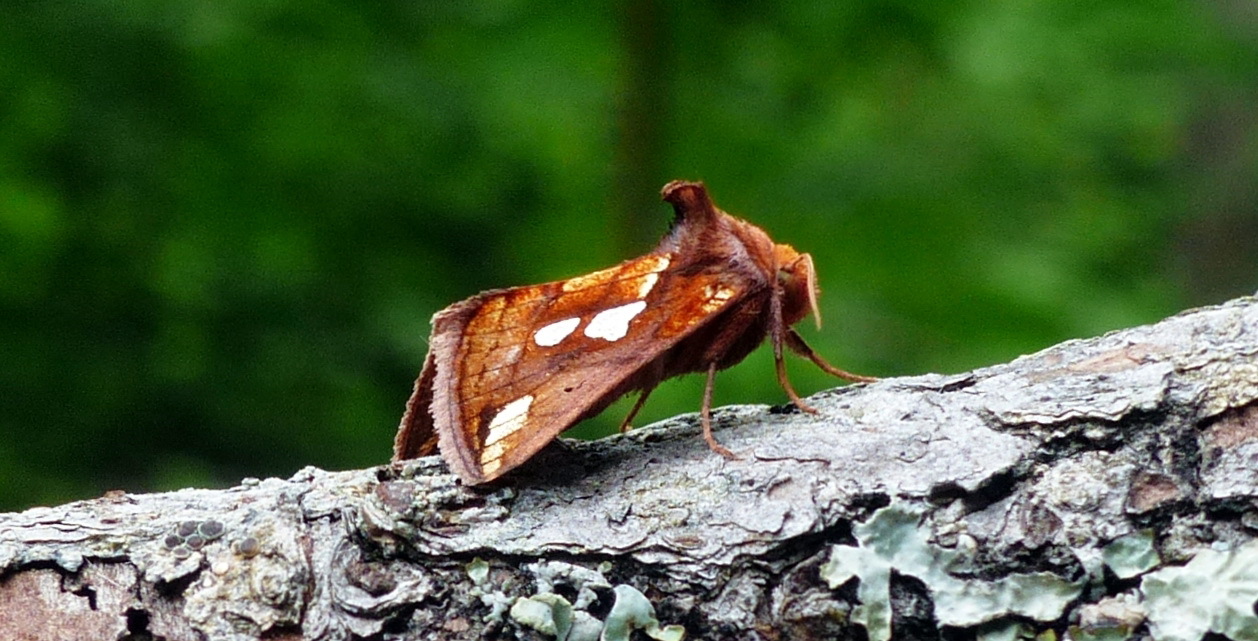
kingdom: Animalia
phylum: Arthropoda
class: Insecta
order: Lepidoptera
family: Noctuidae
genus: Plusia
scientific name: Plusia magnimacula
